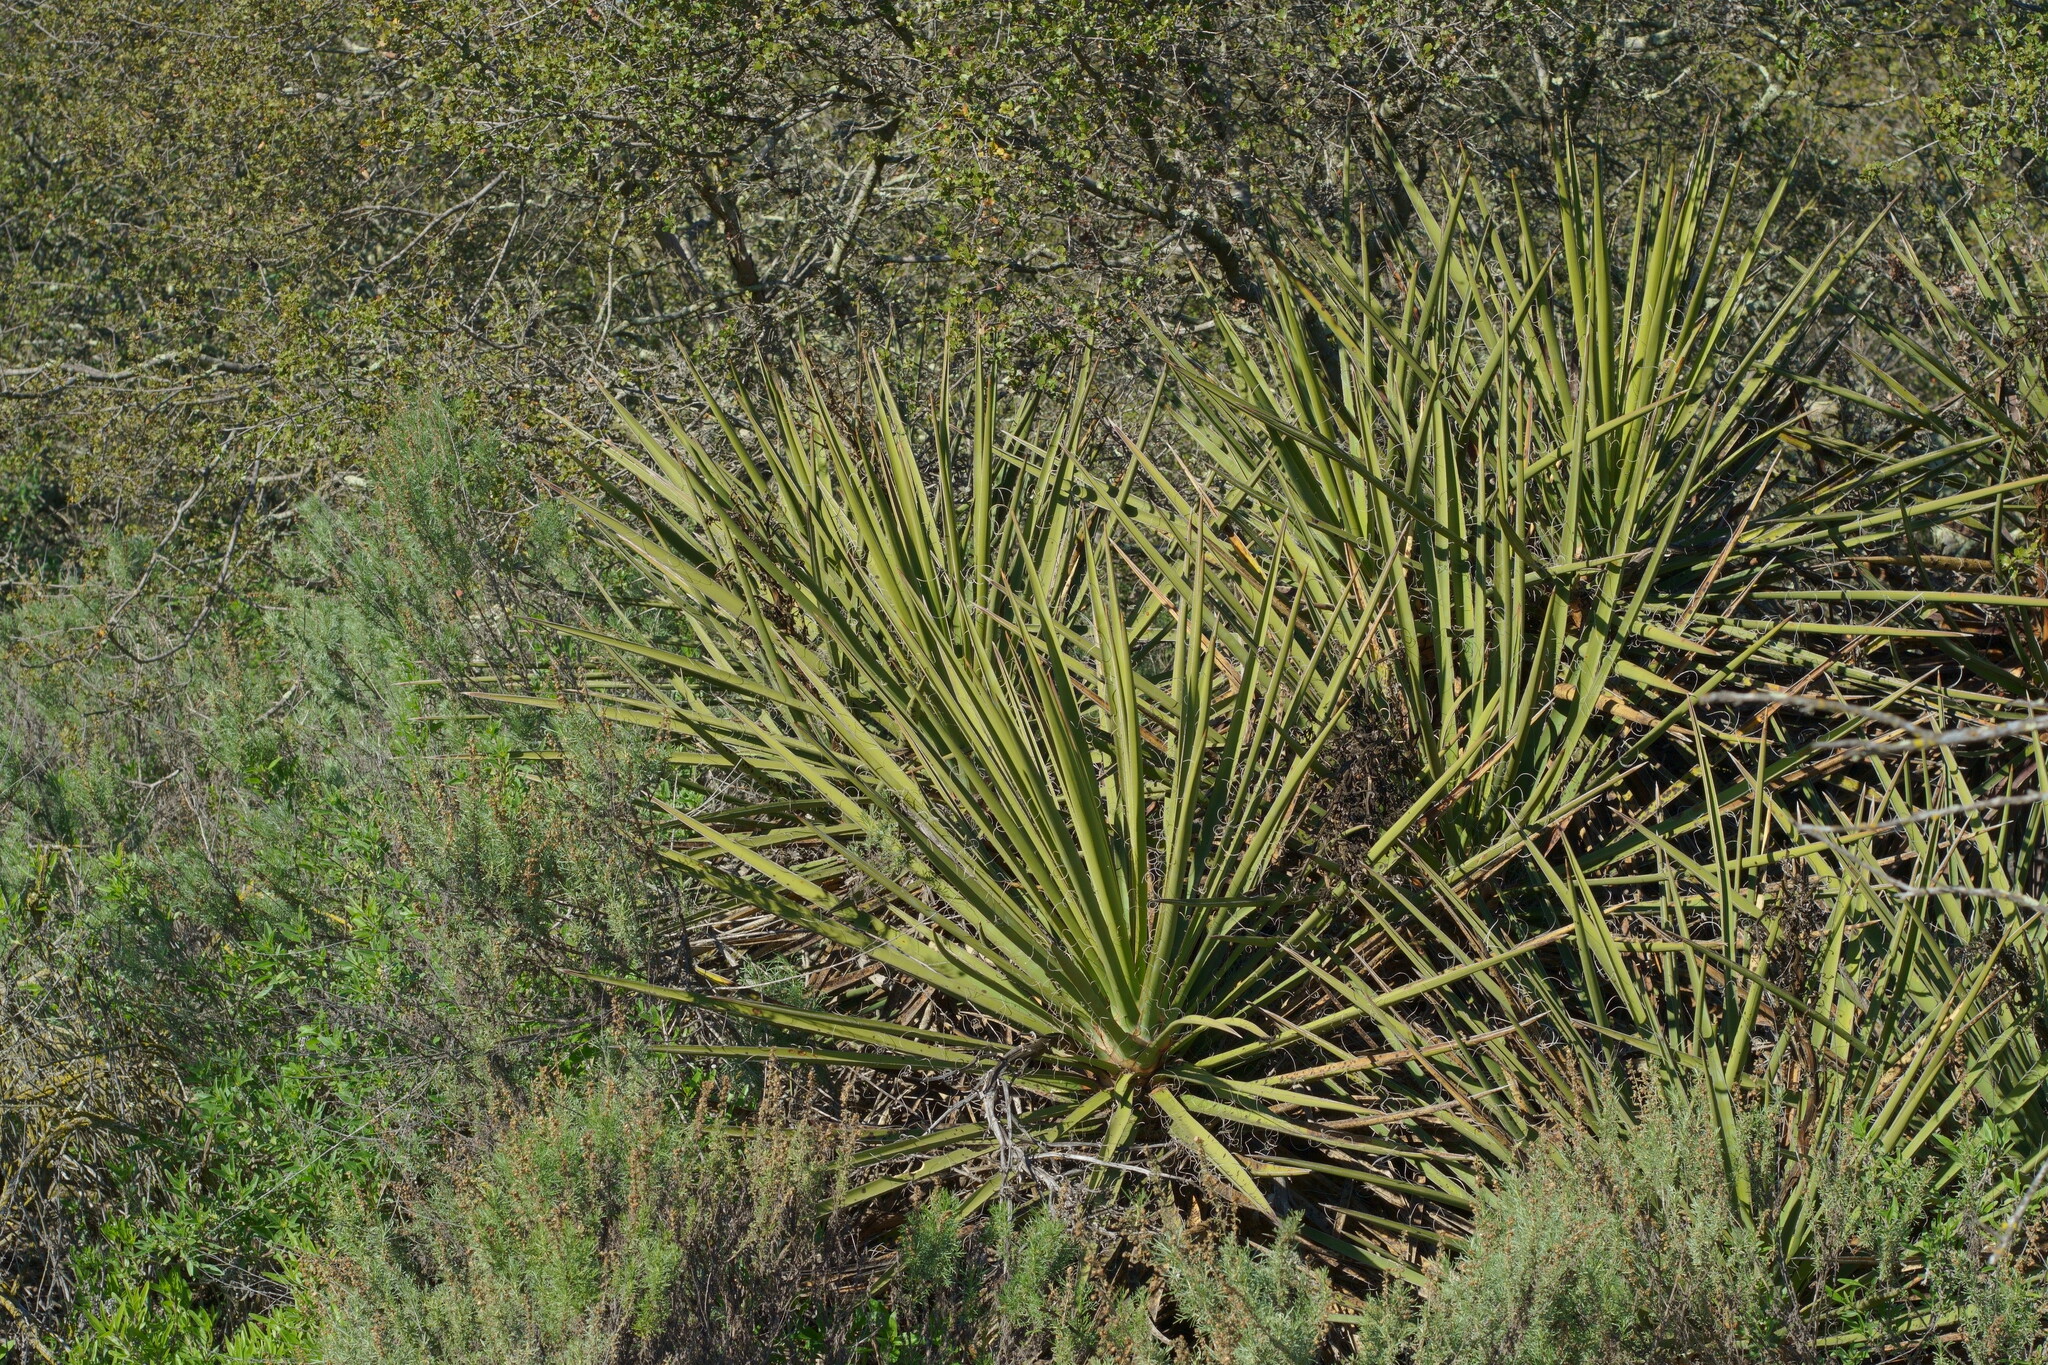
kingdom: Plantae
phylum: Tracheophyta
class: Liliopsida
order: Asparagales
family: Asparagaceae
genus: Yucca
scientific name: Yucca schidigera
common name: Mojave yucca
